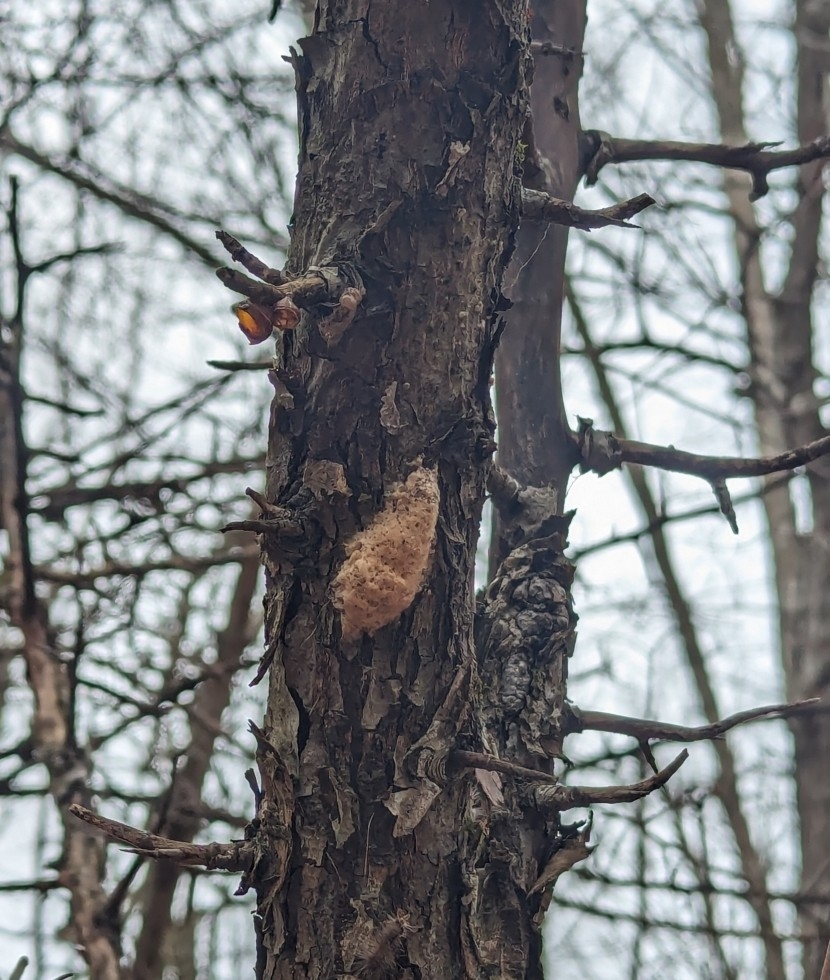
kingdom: Animalia
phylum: Arthropoda
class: Insecta
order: Lepidoptera
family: Erebidae
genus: Lymantria
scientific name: Lymantria dispar
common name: Gypsy moth
